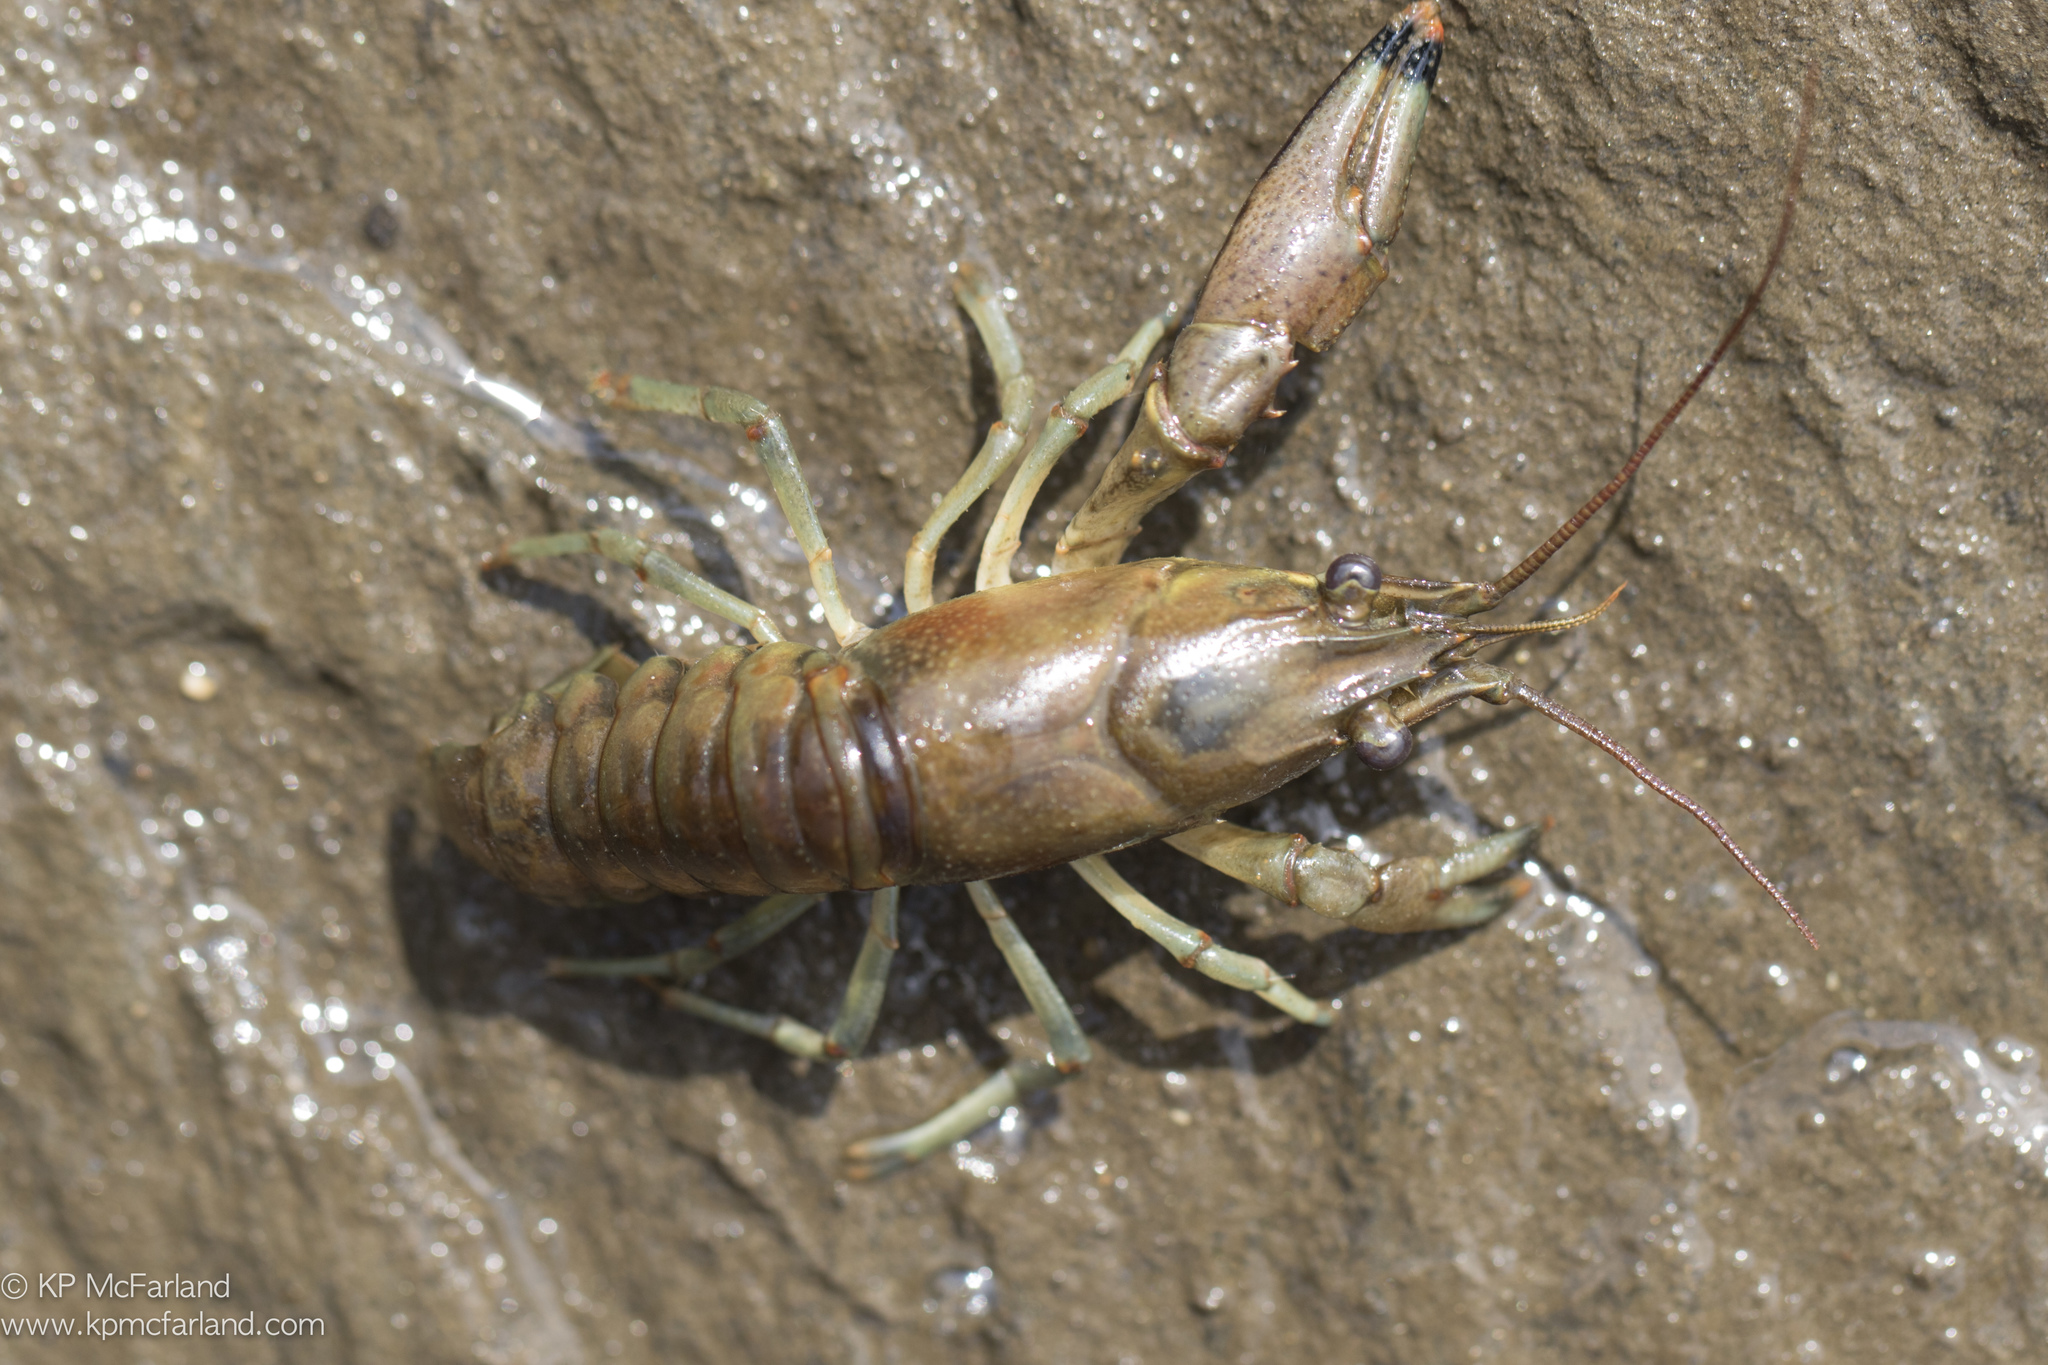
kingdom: Animalia
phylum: Arthropoda
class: Malacostraca
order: Decapoda
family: Cambaridae
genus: Faxonius
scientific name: Faxonius rusticus
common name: Rusty crayfish
